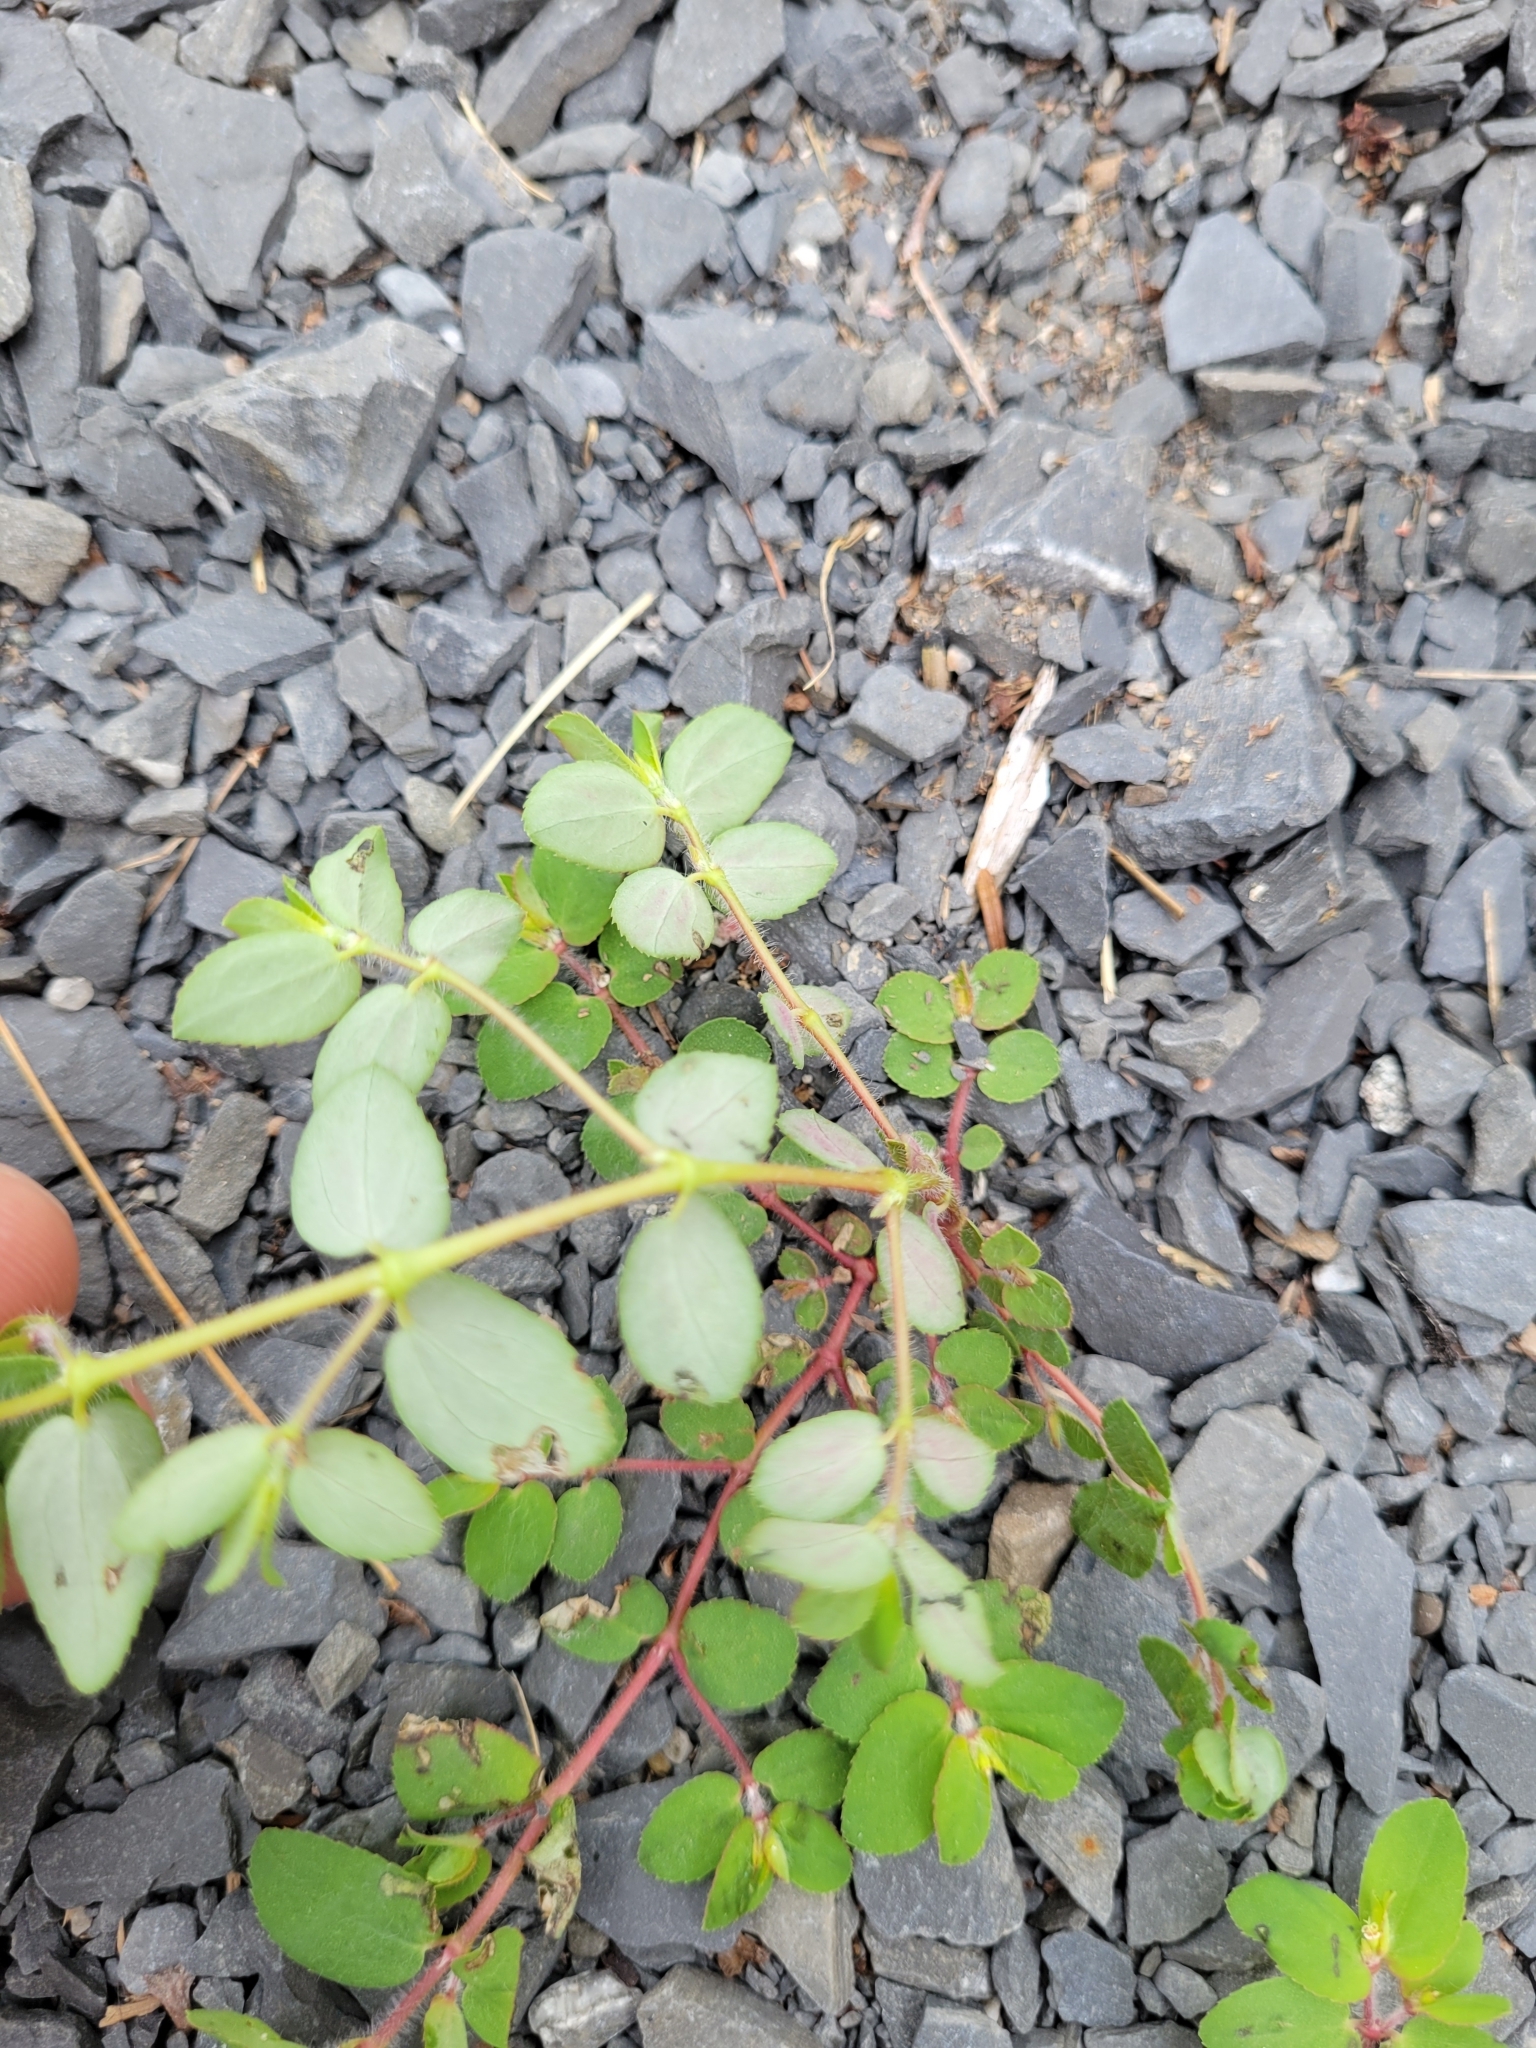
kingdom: Plantae
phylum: Tracheophyta
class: Magnoliopsida
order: Malpighiales
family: Euphorbiaceae
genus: Euphorbia
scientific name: Euphorbia vermiculata
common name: Hairy spurge
